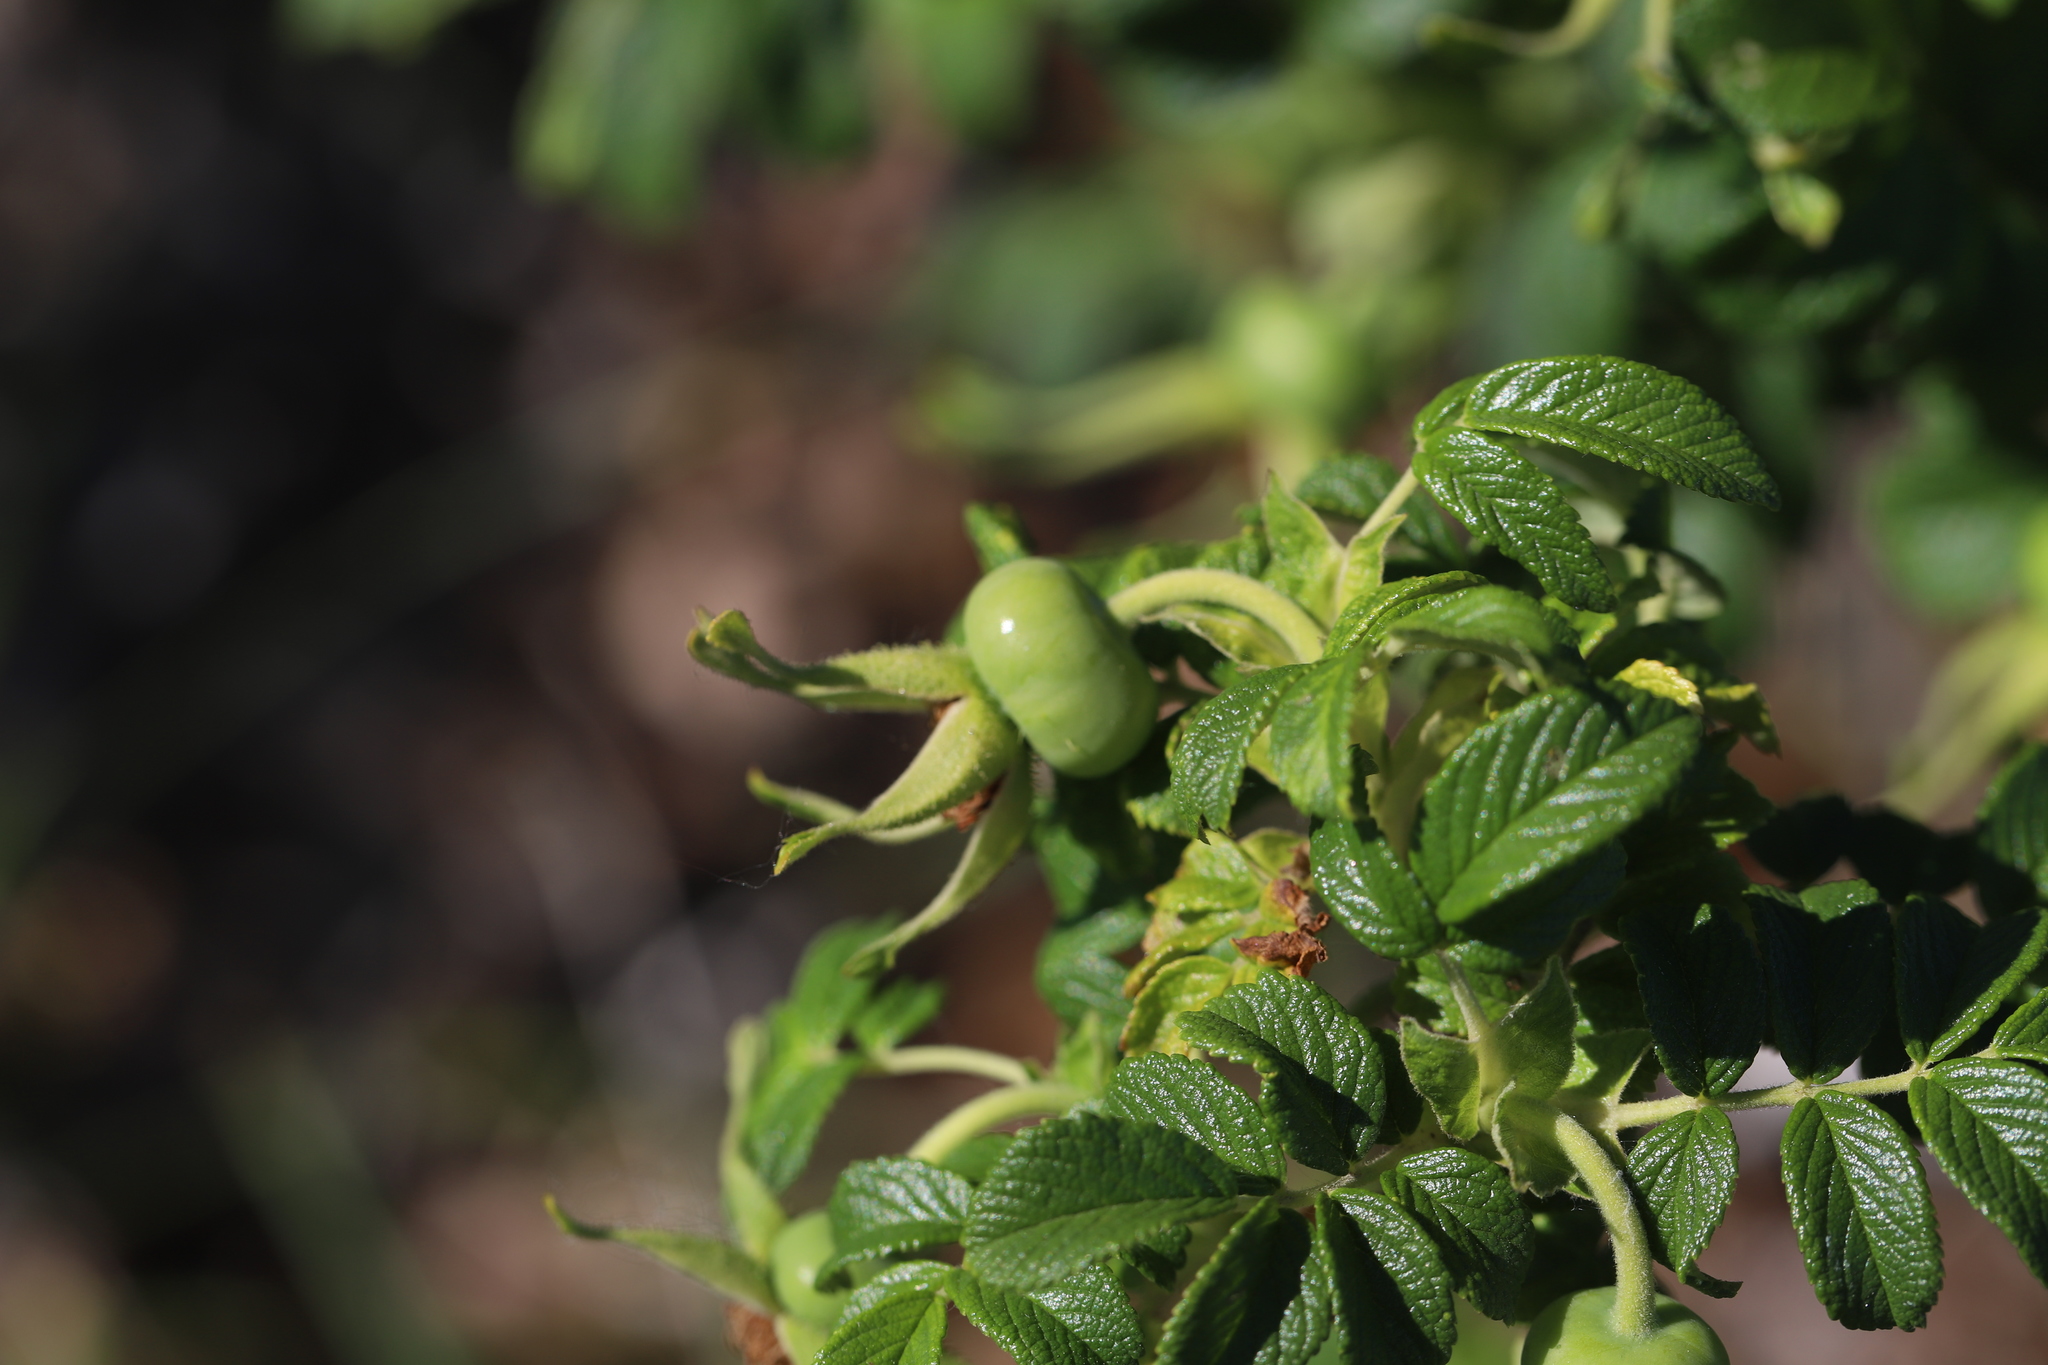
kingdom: Plantae
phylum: Tracheophyta
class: Magnoliopsida
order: Rosales
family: Rosaceae
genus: Rosa
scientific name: Rosa rugosa
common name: Japanese rose
